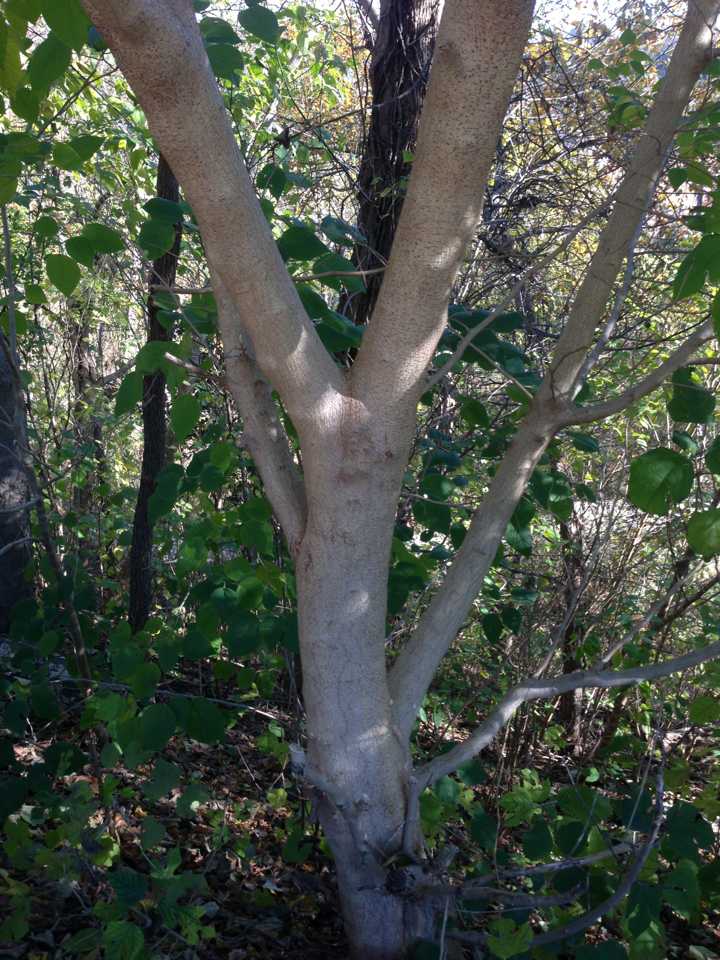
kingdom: Plantae
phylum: Tracheophyta
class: Magnoliopsida
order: Rosales
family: Moraceae
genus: Broussonetia
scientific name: Broussonetia papyrifera
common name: Paper mulberry
